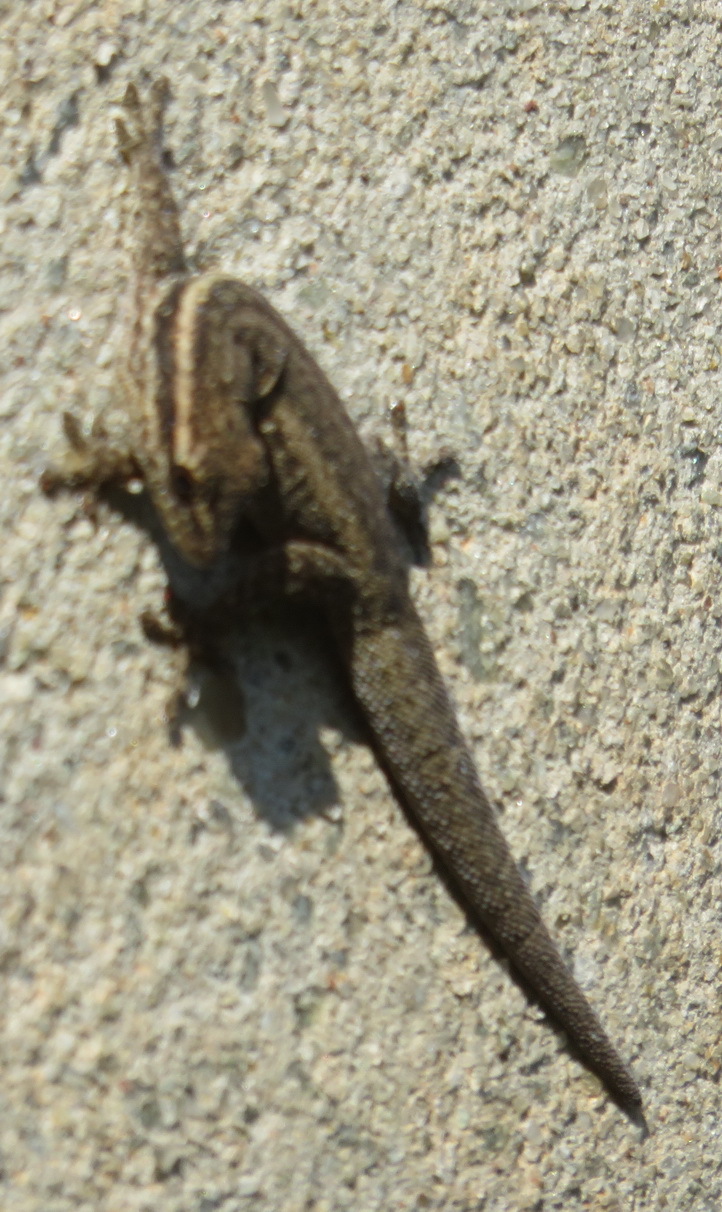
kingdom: Animalia
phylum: Chordata
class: Squamata
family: Gekkonidae
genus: Lygodactylus
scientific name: Lygodactylus capensis
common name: Cape dwarf gecko
